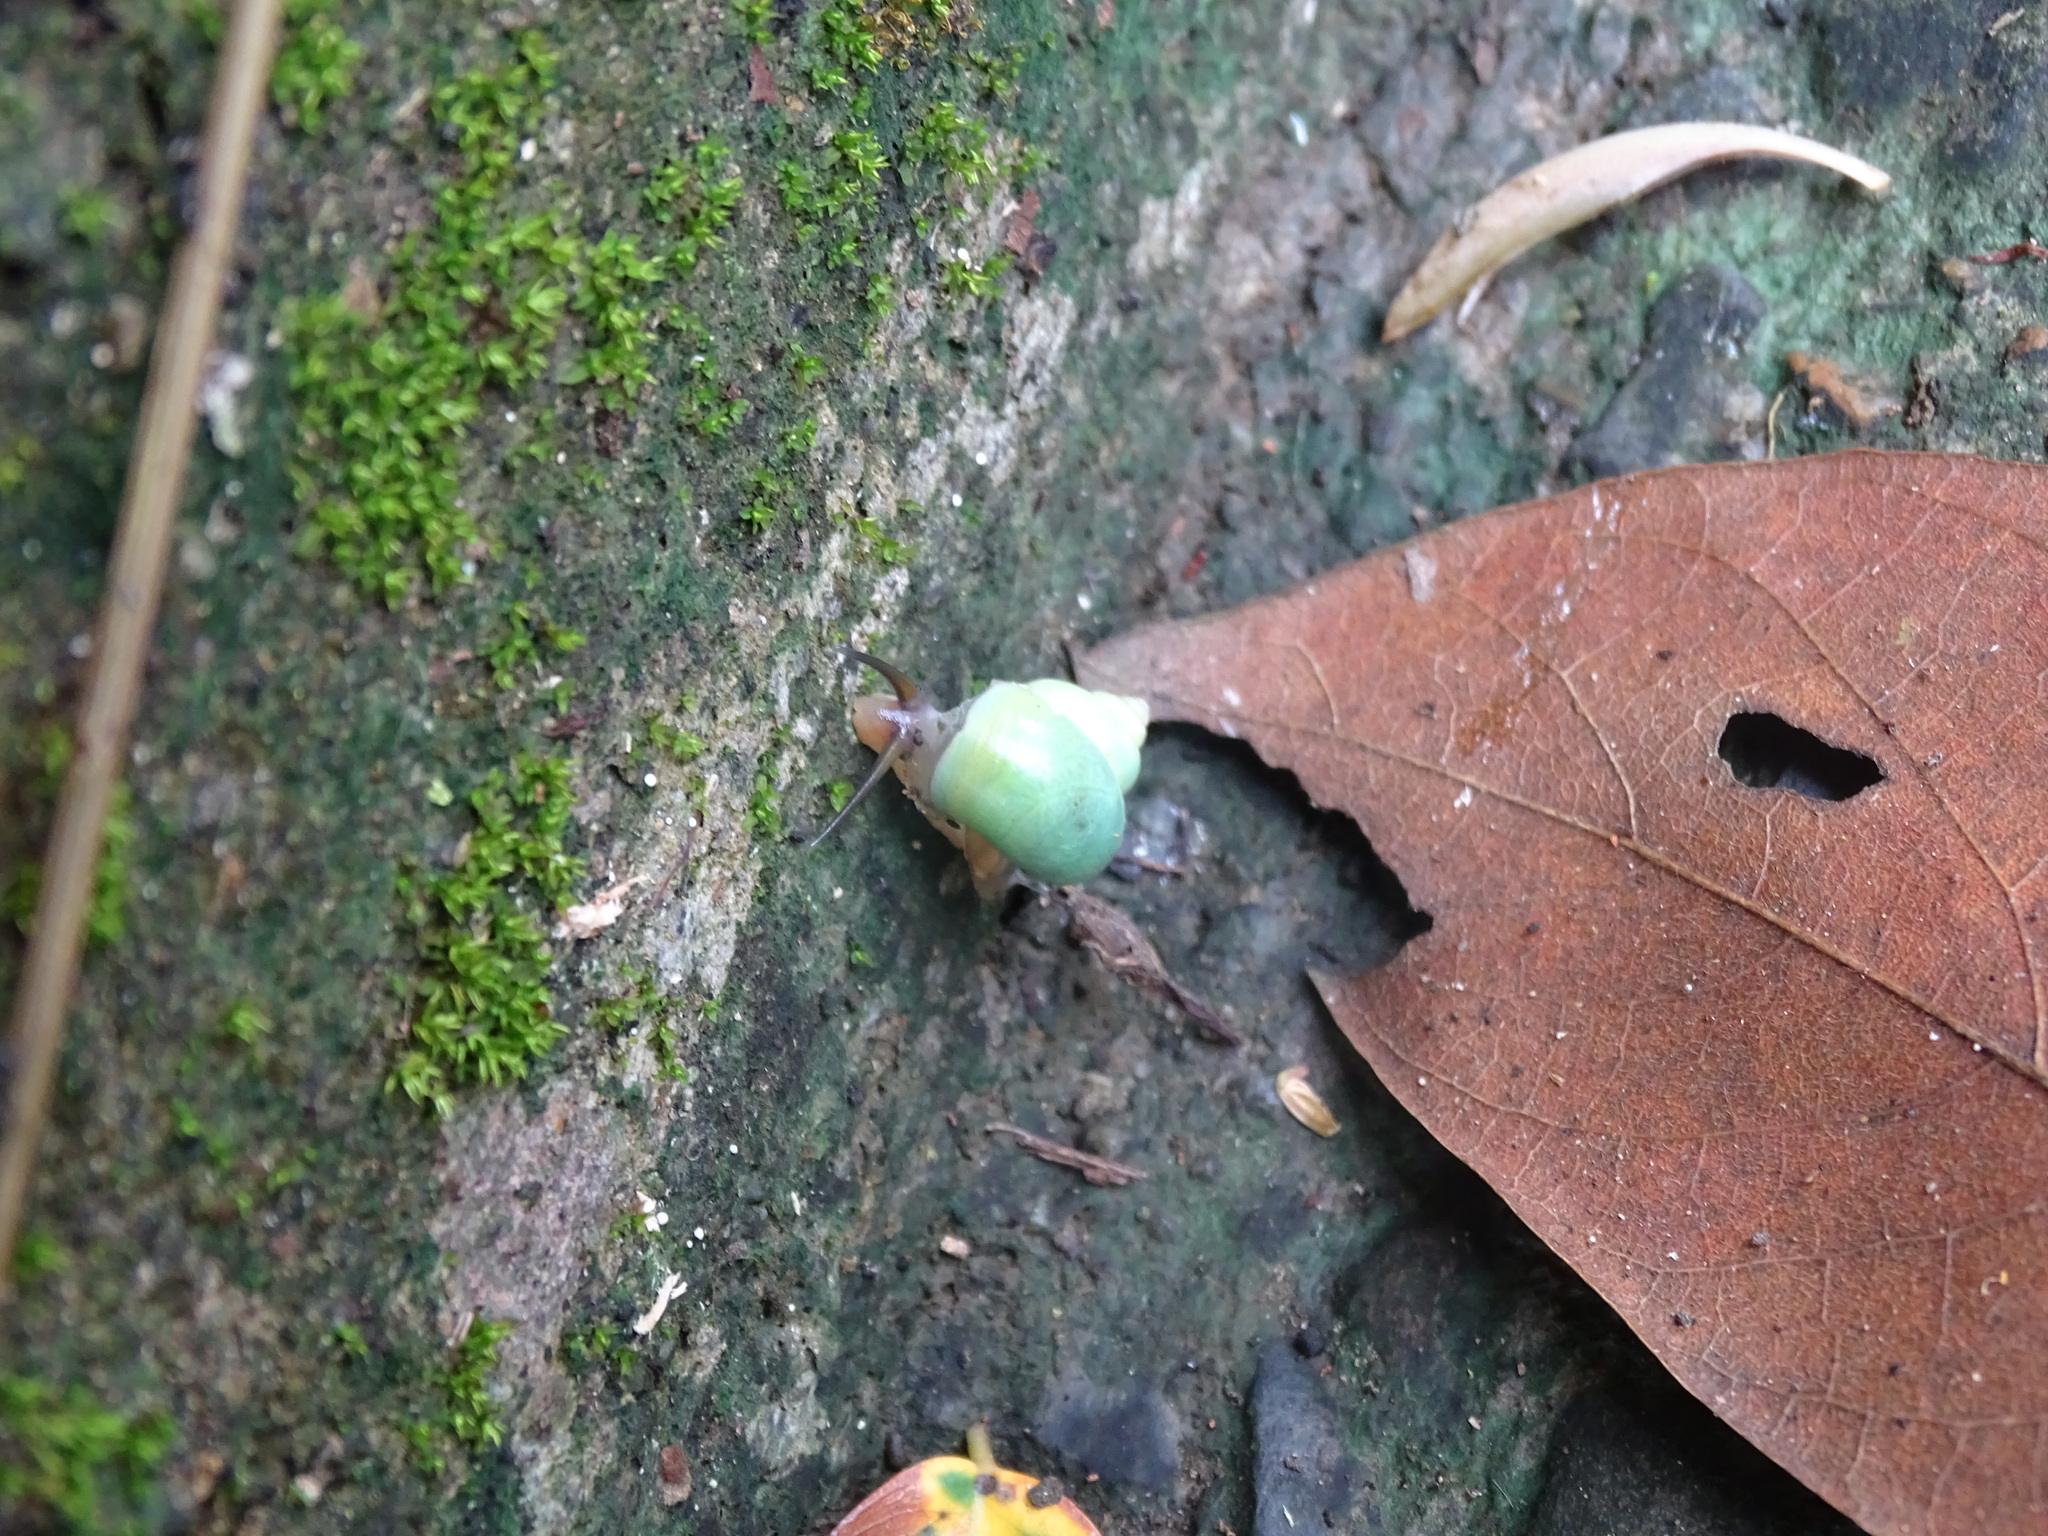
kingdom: Animalia
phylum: Mollusca
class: Gastropoda
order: Architaenioglossa
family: Cyclophoridae
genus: Leptopoma
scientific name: Leptopoma nitidum
